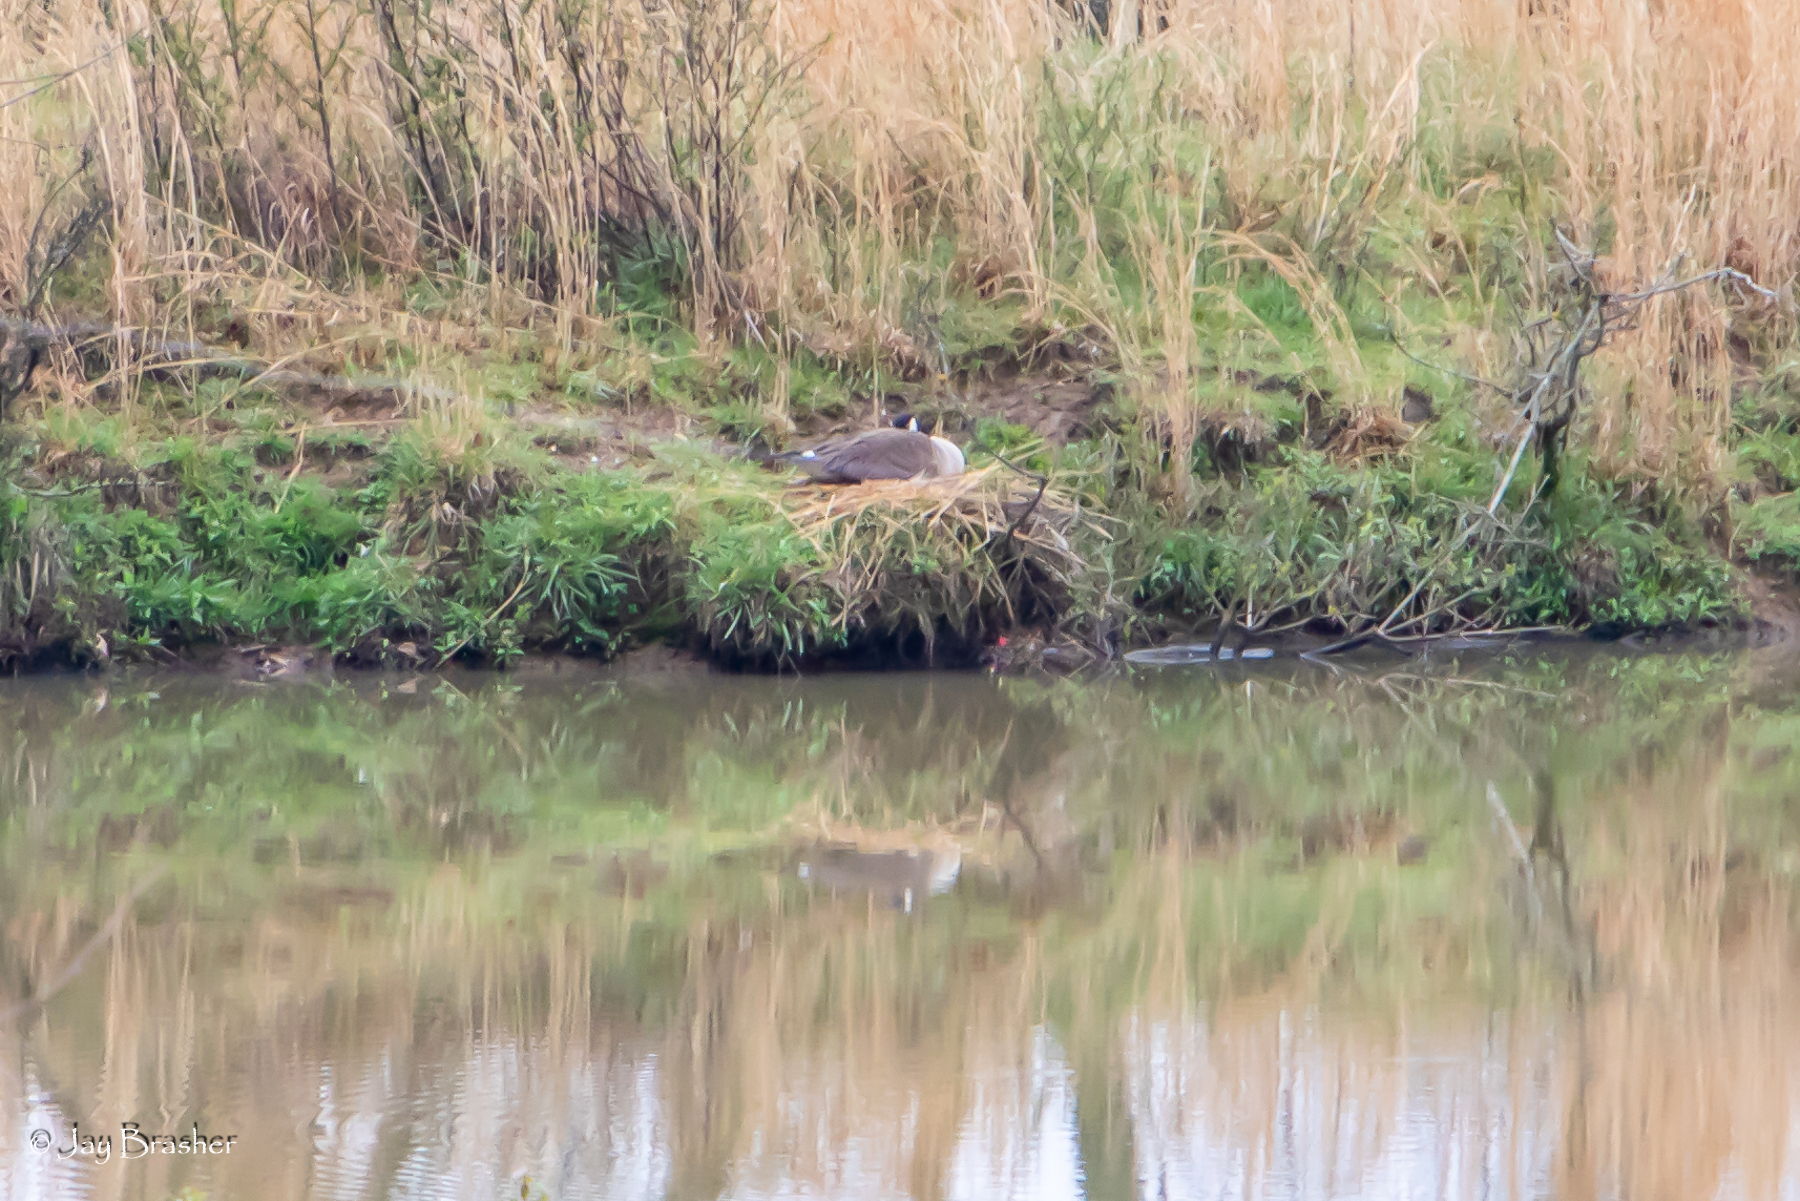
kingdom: Animalia
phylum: Chordata
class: Aves
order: Anseriformes
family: Anatidae
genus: Branta
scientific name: Branta canadensis
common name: Canada goose
